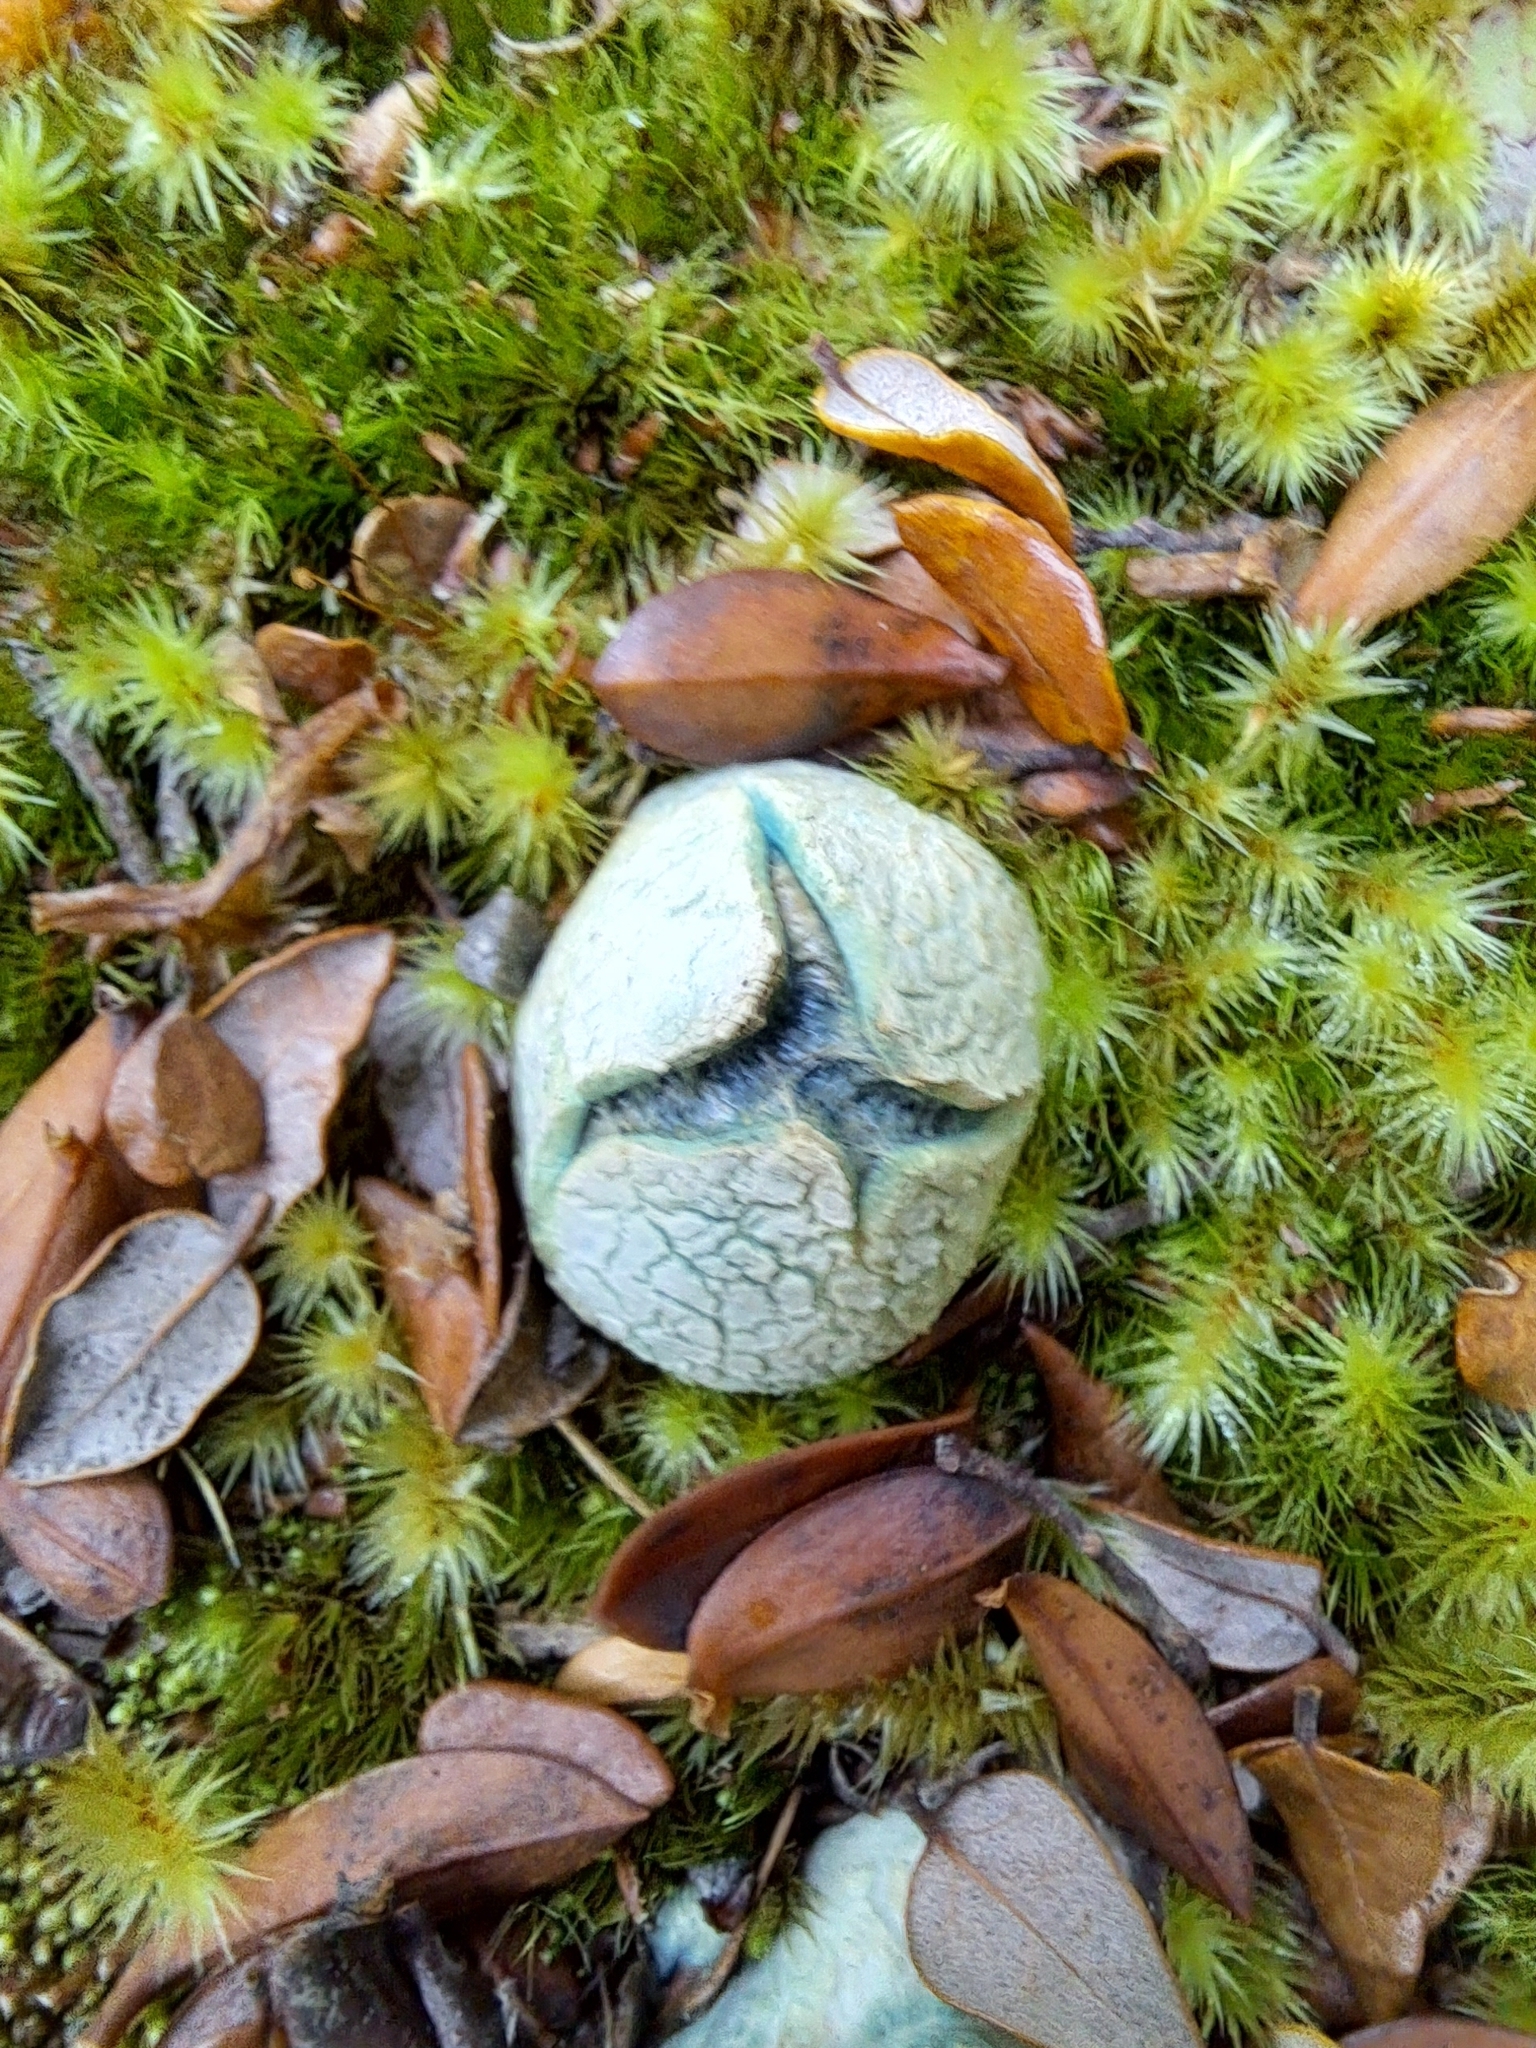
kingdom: Fungi
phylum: Basidiomycota
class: Agaricomycetes
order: Boletales
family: Boletaceae
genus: Leccinum
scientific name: Leccinum pachyderme
